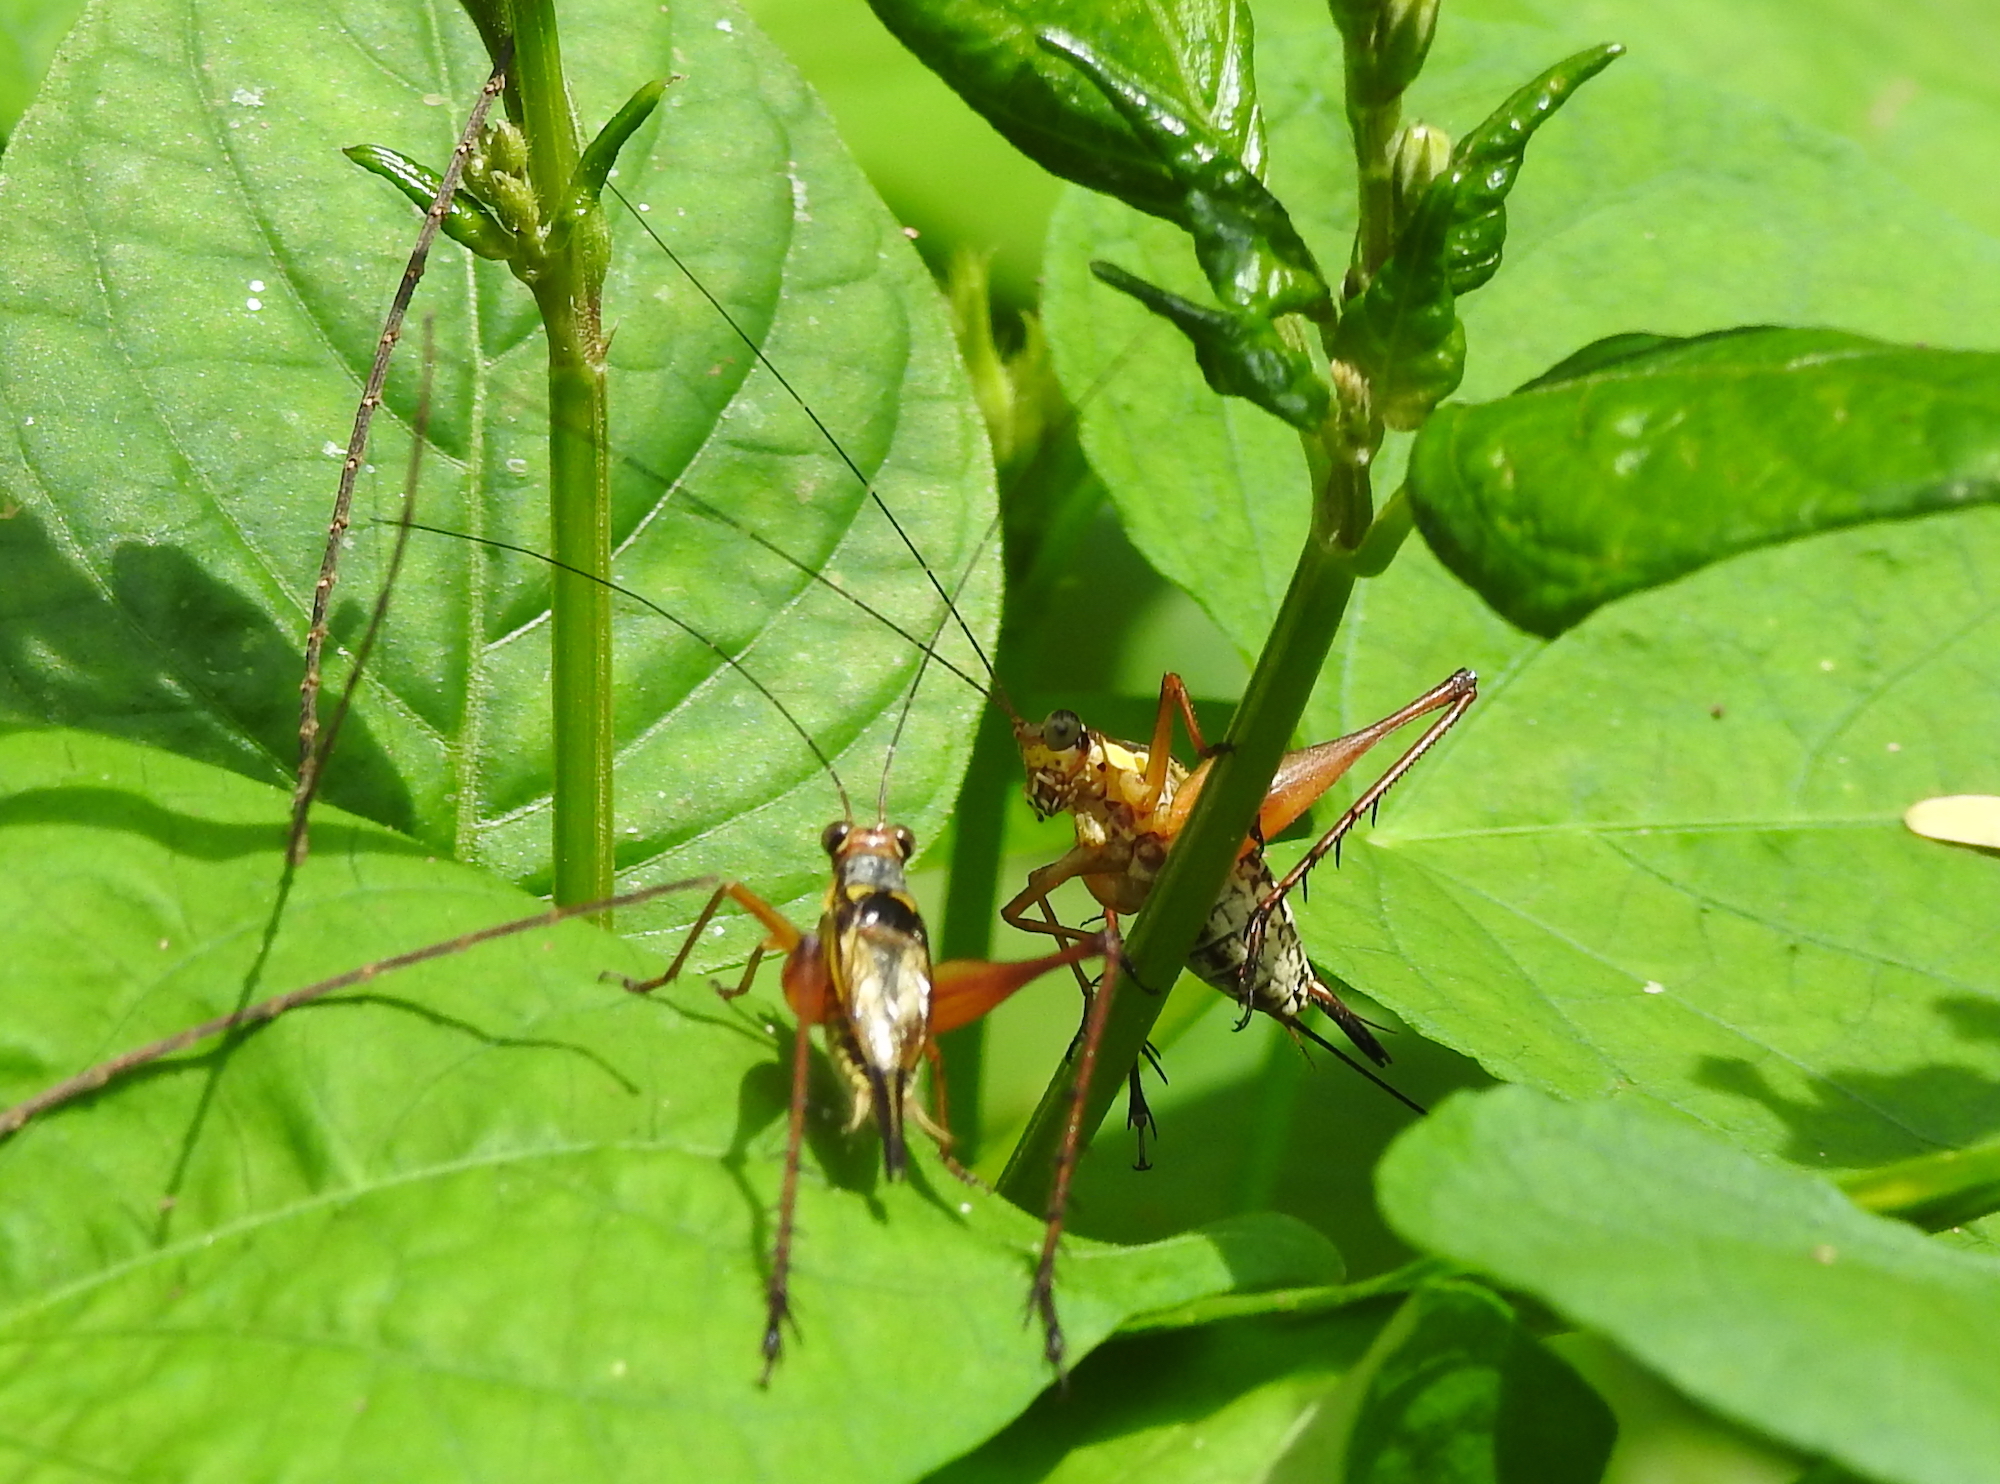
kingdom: Animalia
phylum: Arthropoda
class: Insecta
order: Orthoptera
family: Gryllidae
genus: Nisitrus
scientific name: Nisitrus malaya
